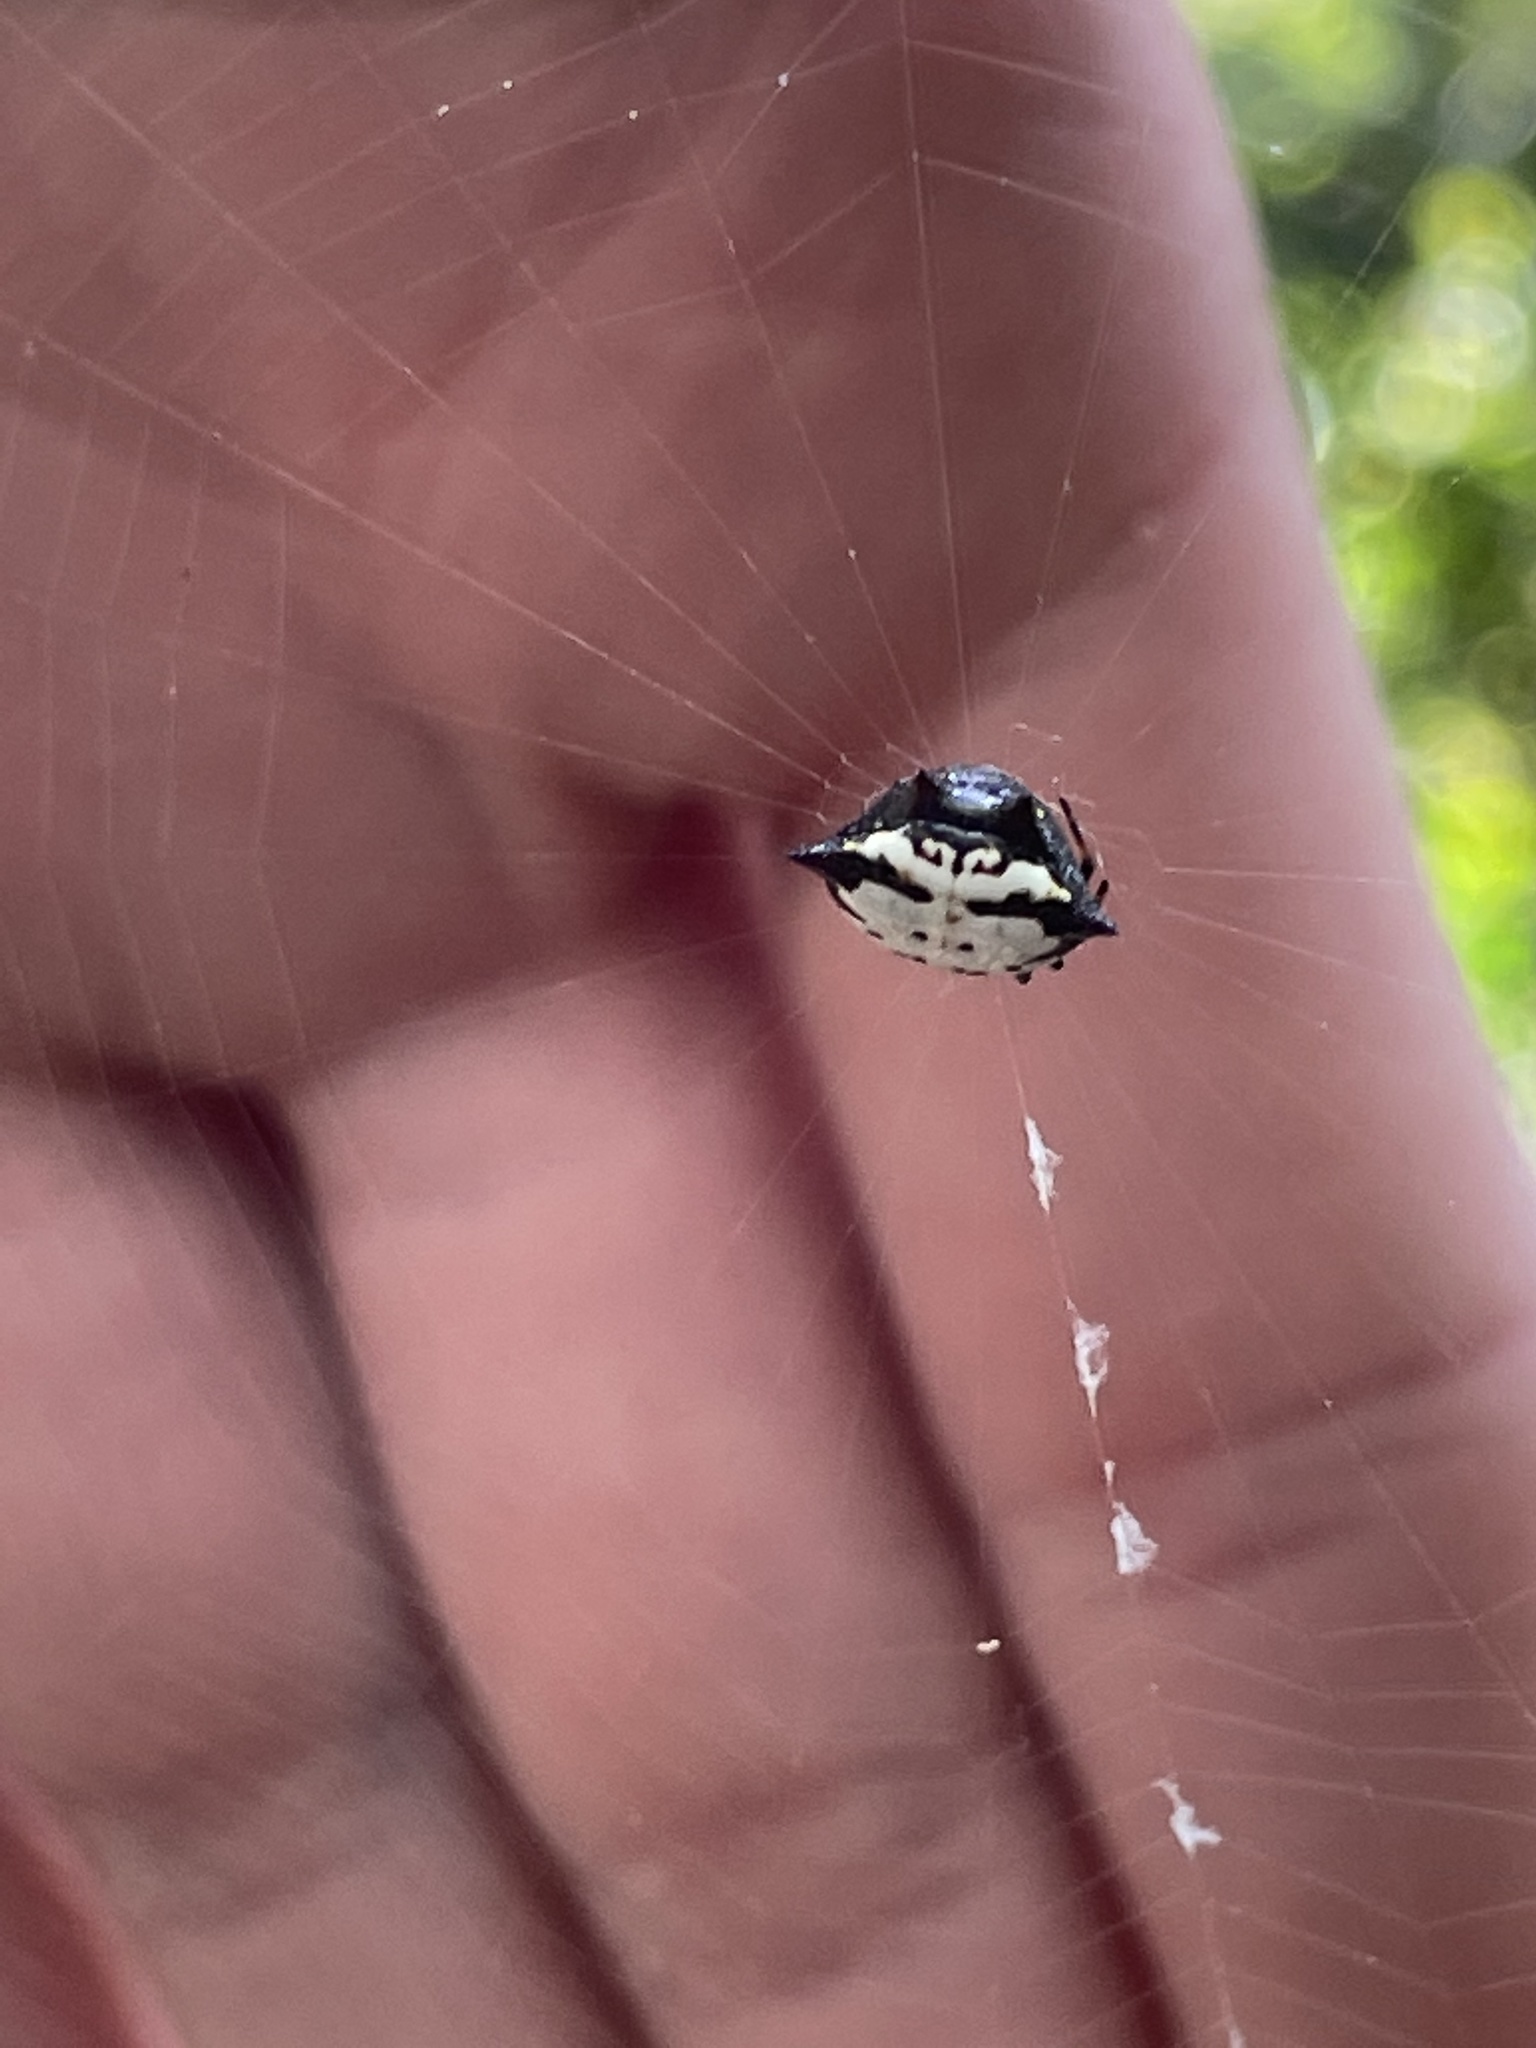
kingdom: Animalia
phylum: Arthropoda
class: Arachnida
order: Araneae
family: Araneidae
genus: Gasteracantha
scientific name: Gasteracantha cancriformis
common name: Orb weavers
